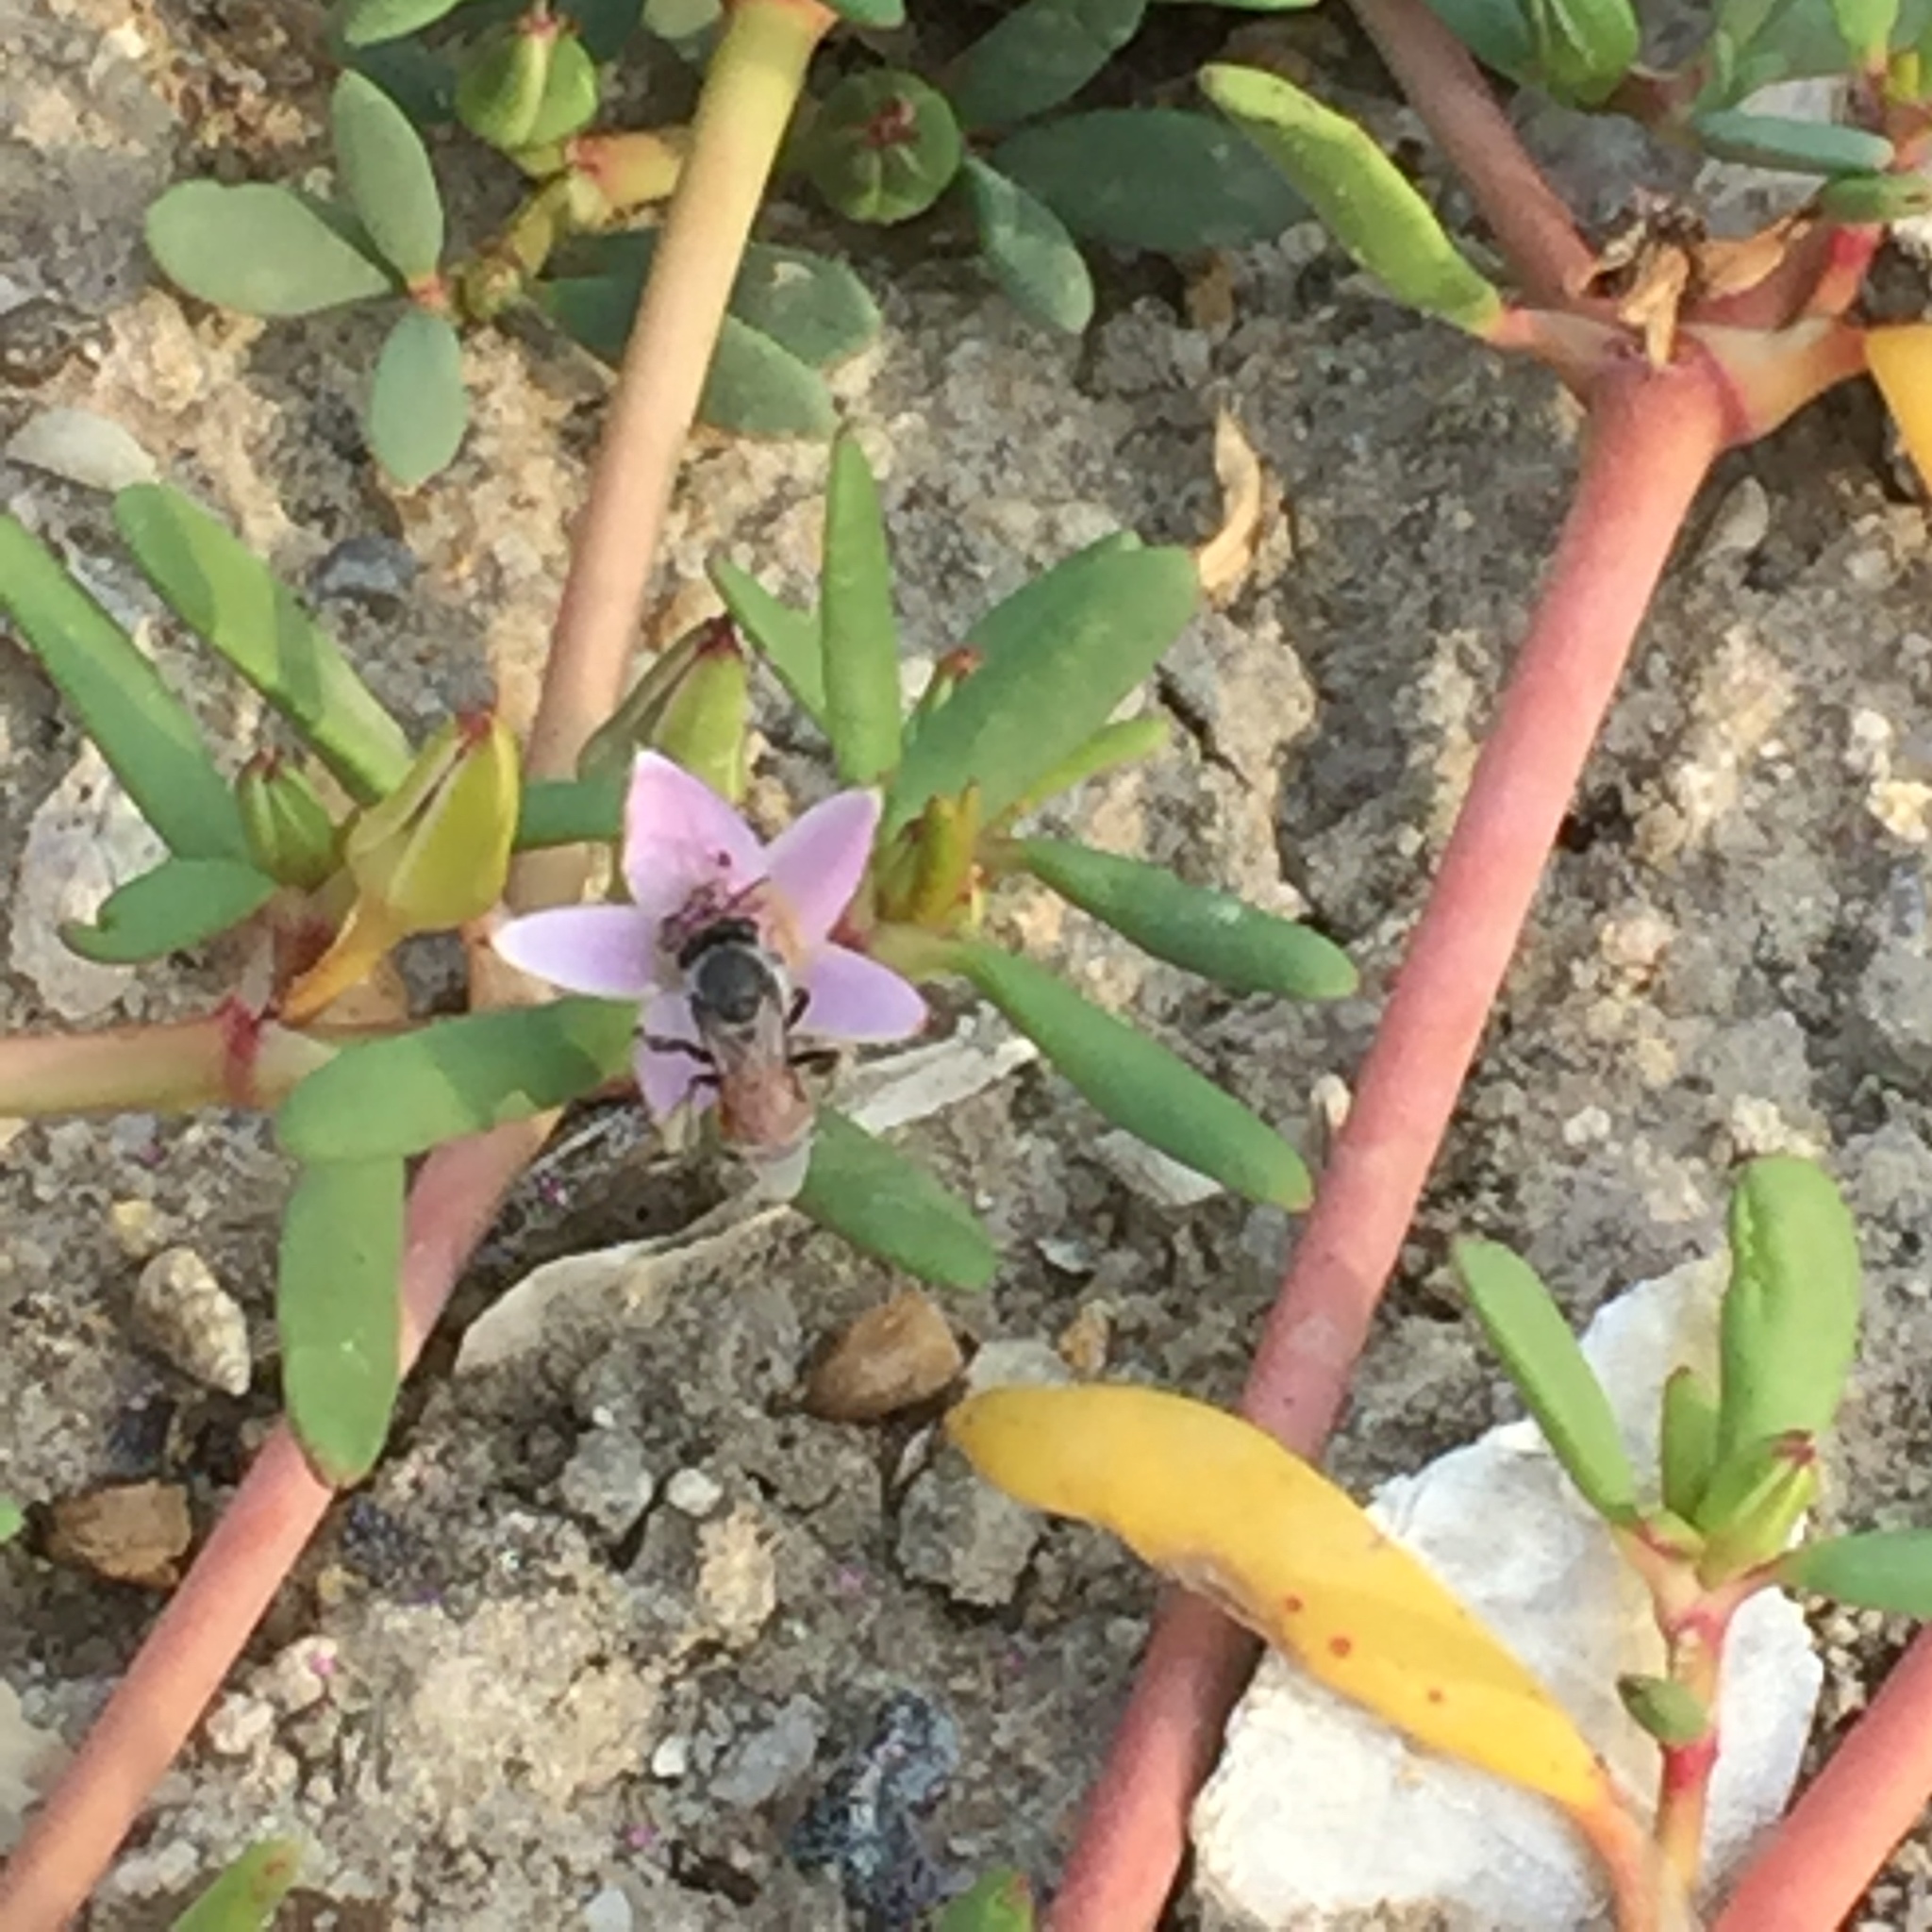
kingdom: Animalia
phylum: Arthropoda
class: Insecta
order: Hymenoptera
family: Apidae
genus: Apis
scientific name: Apis florea
